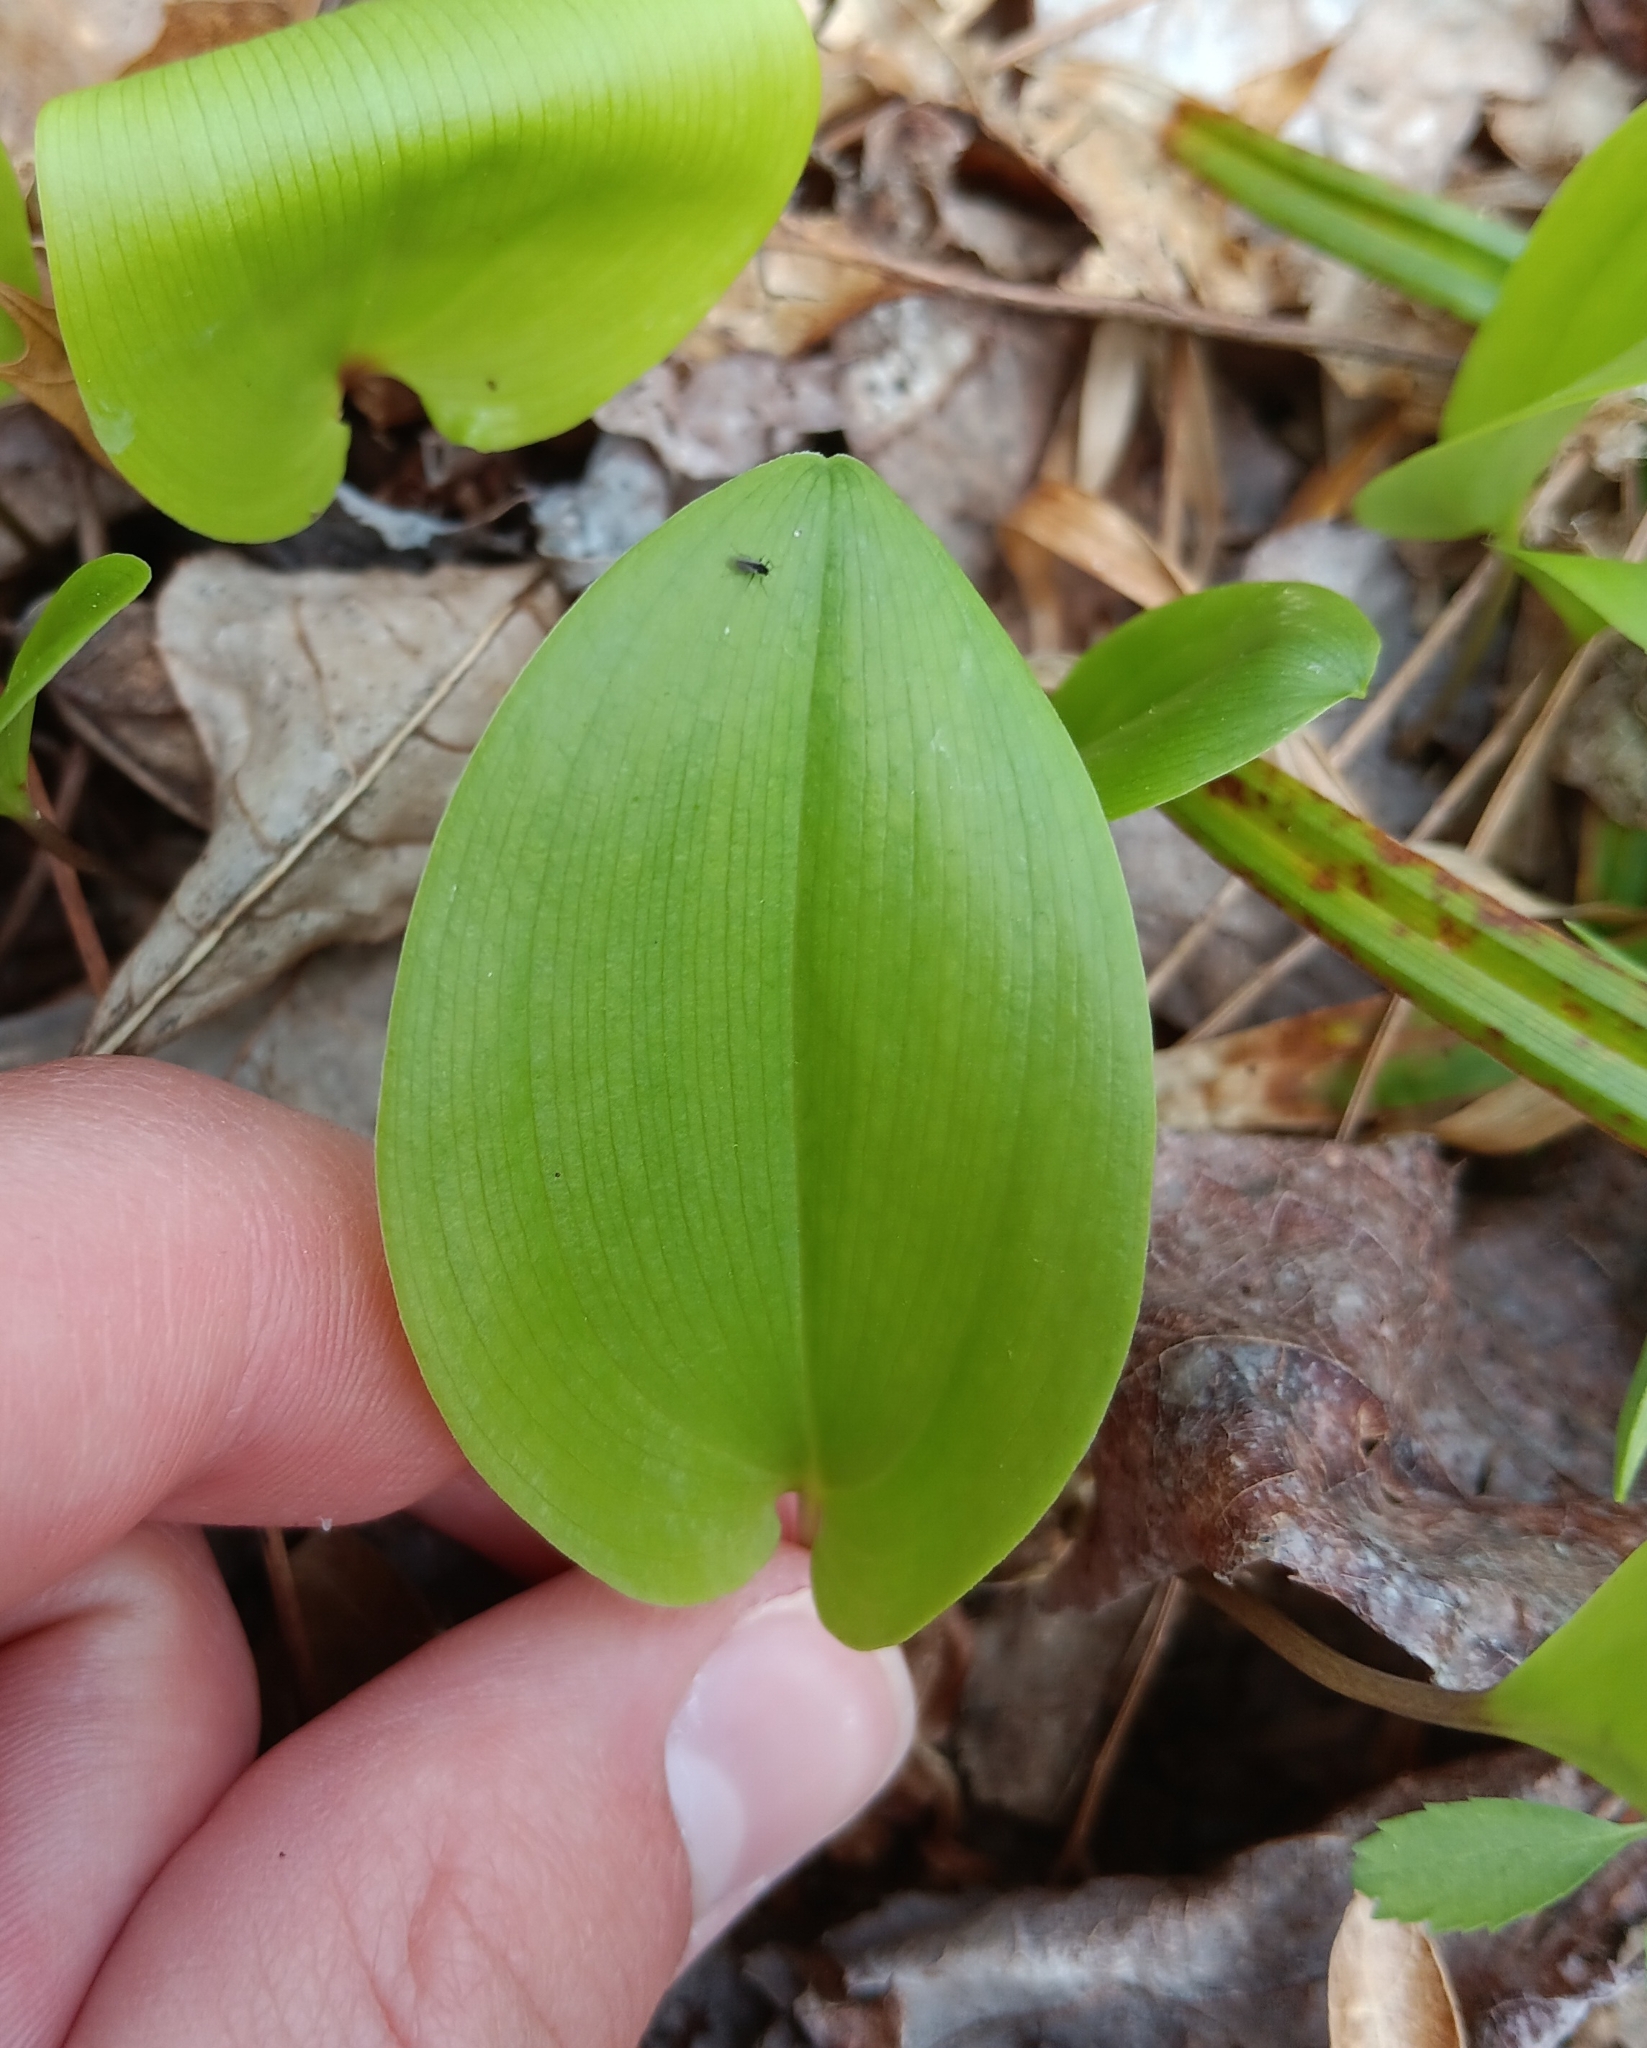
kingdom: Plantae
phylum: Tracheophyta
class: Liliopsida
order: Asparagales
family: Asparagaceae
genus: Maianthemum
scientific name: Maianthemum canadense
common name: False lily-of-the-valley
